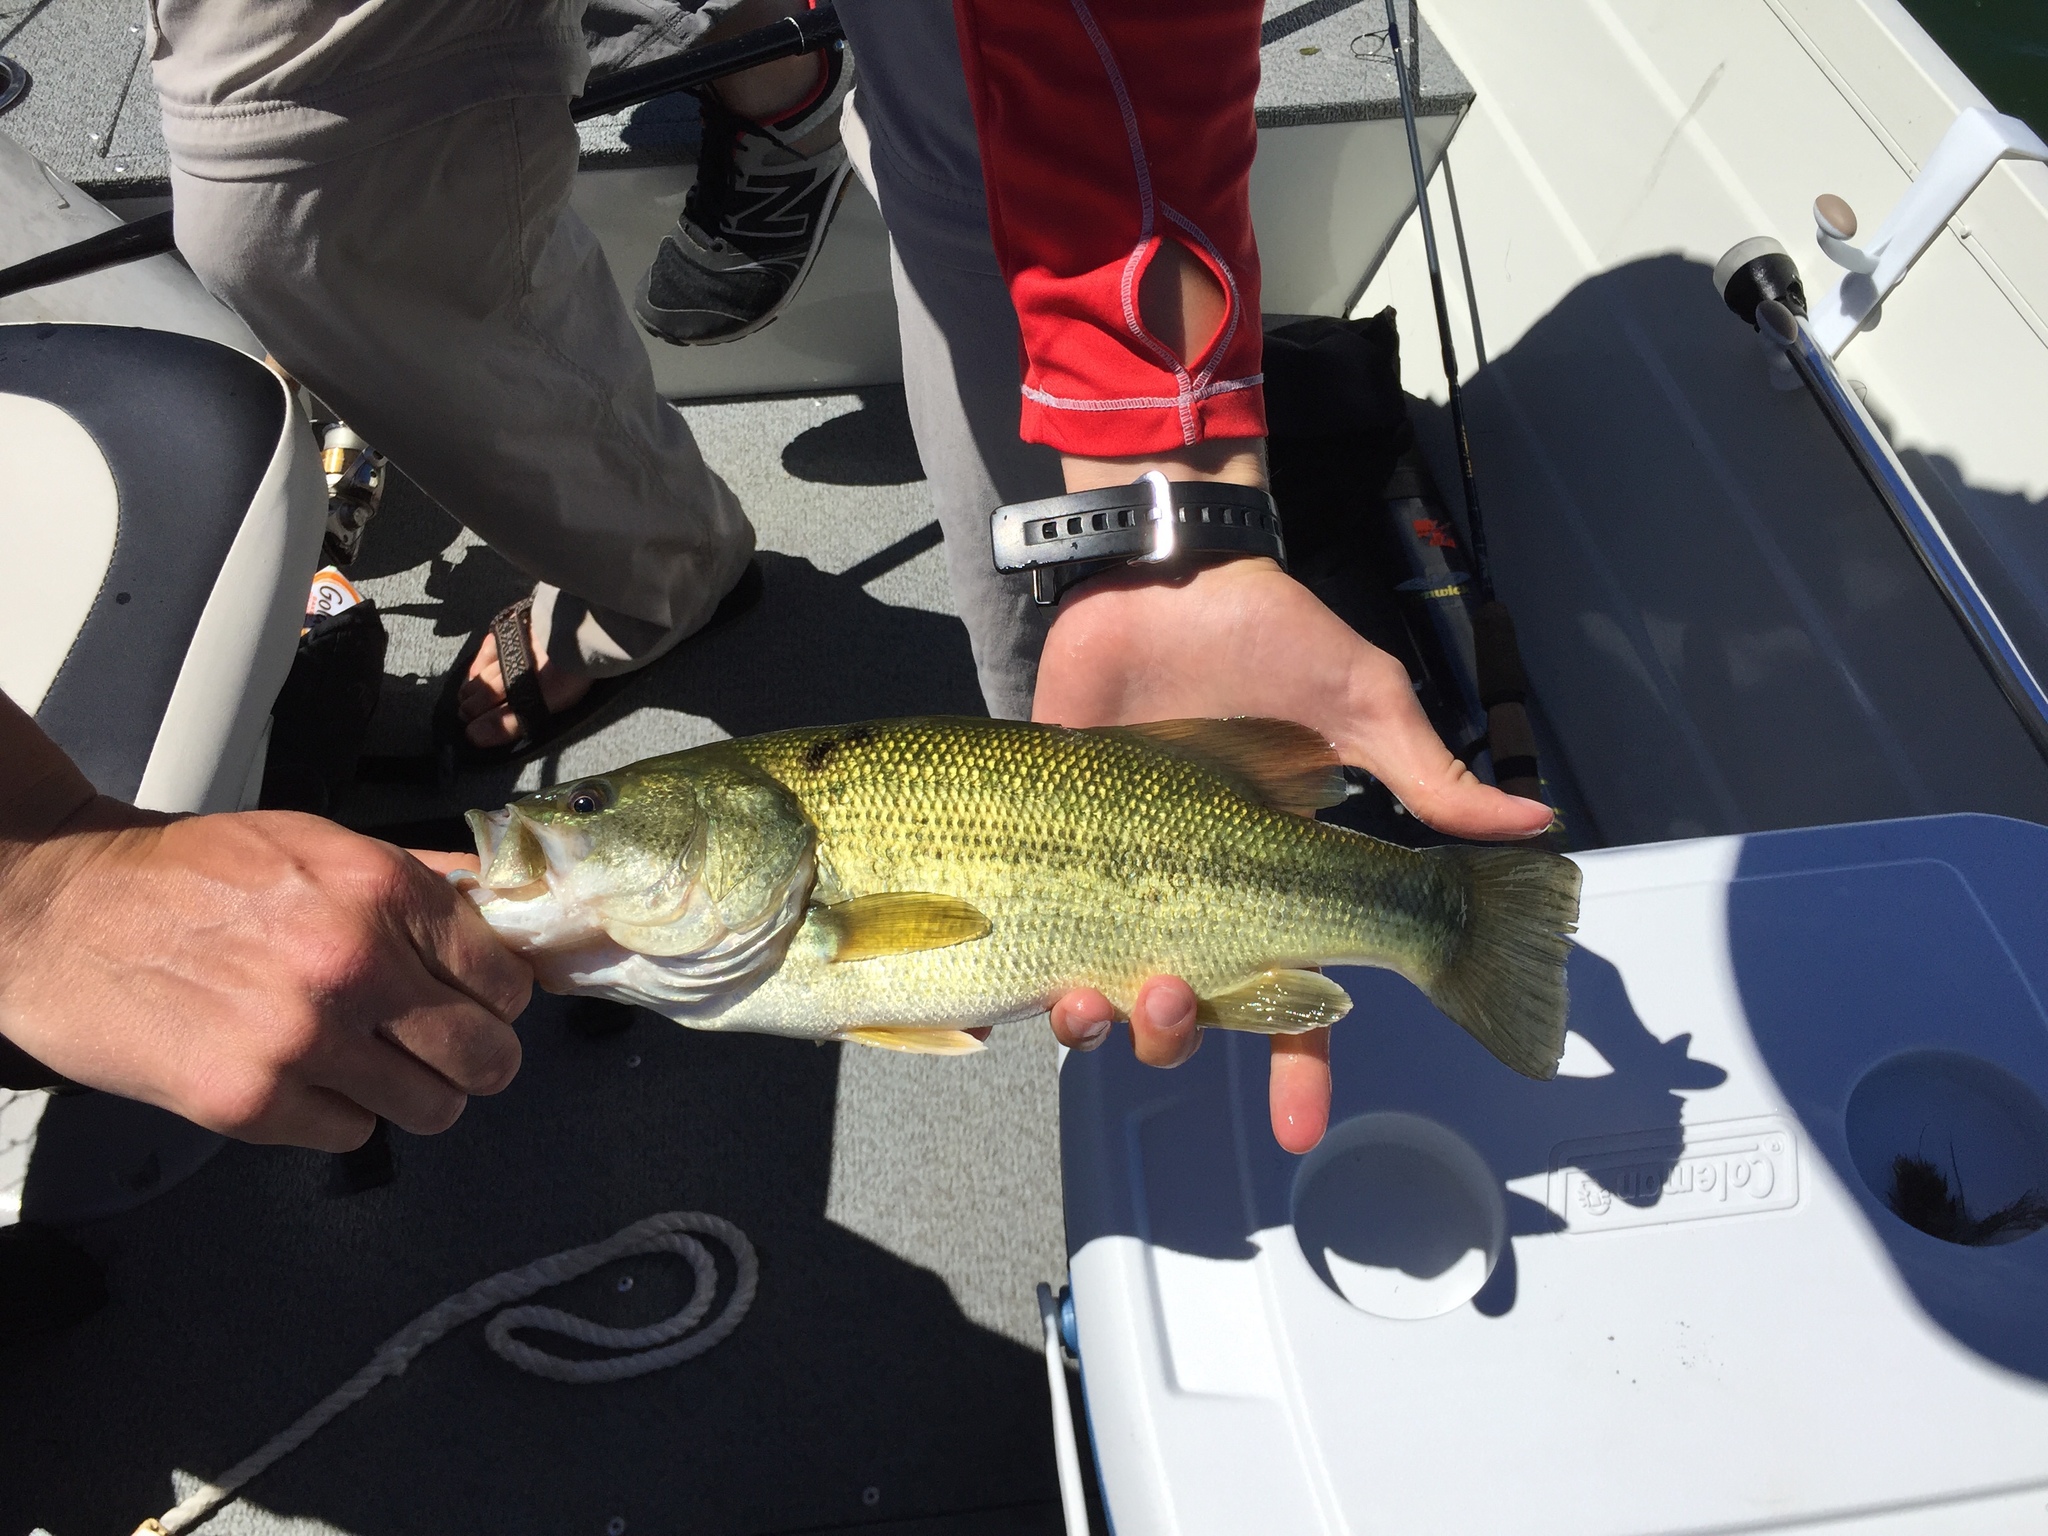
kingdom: Animalia
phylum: Chordata
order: Perciformes
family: Centrarchidae
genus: Micropterus
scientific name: Micropterus
